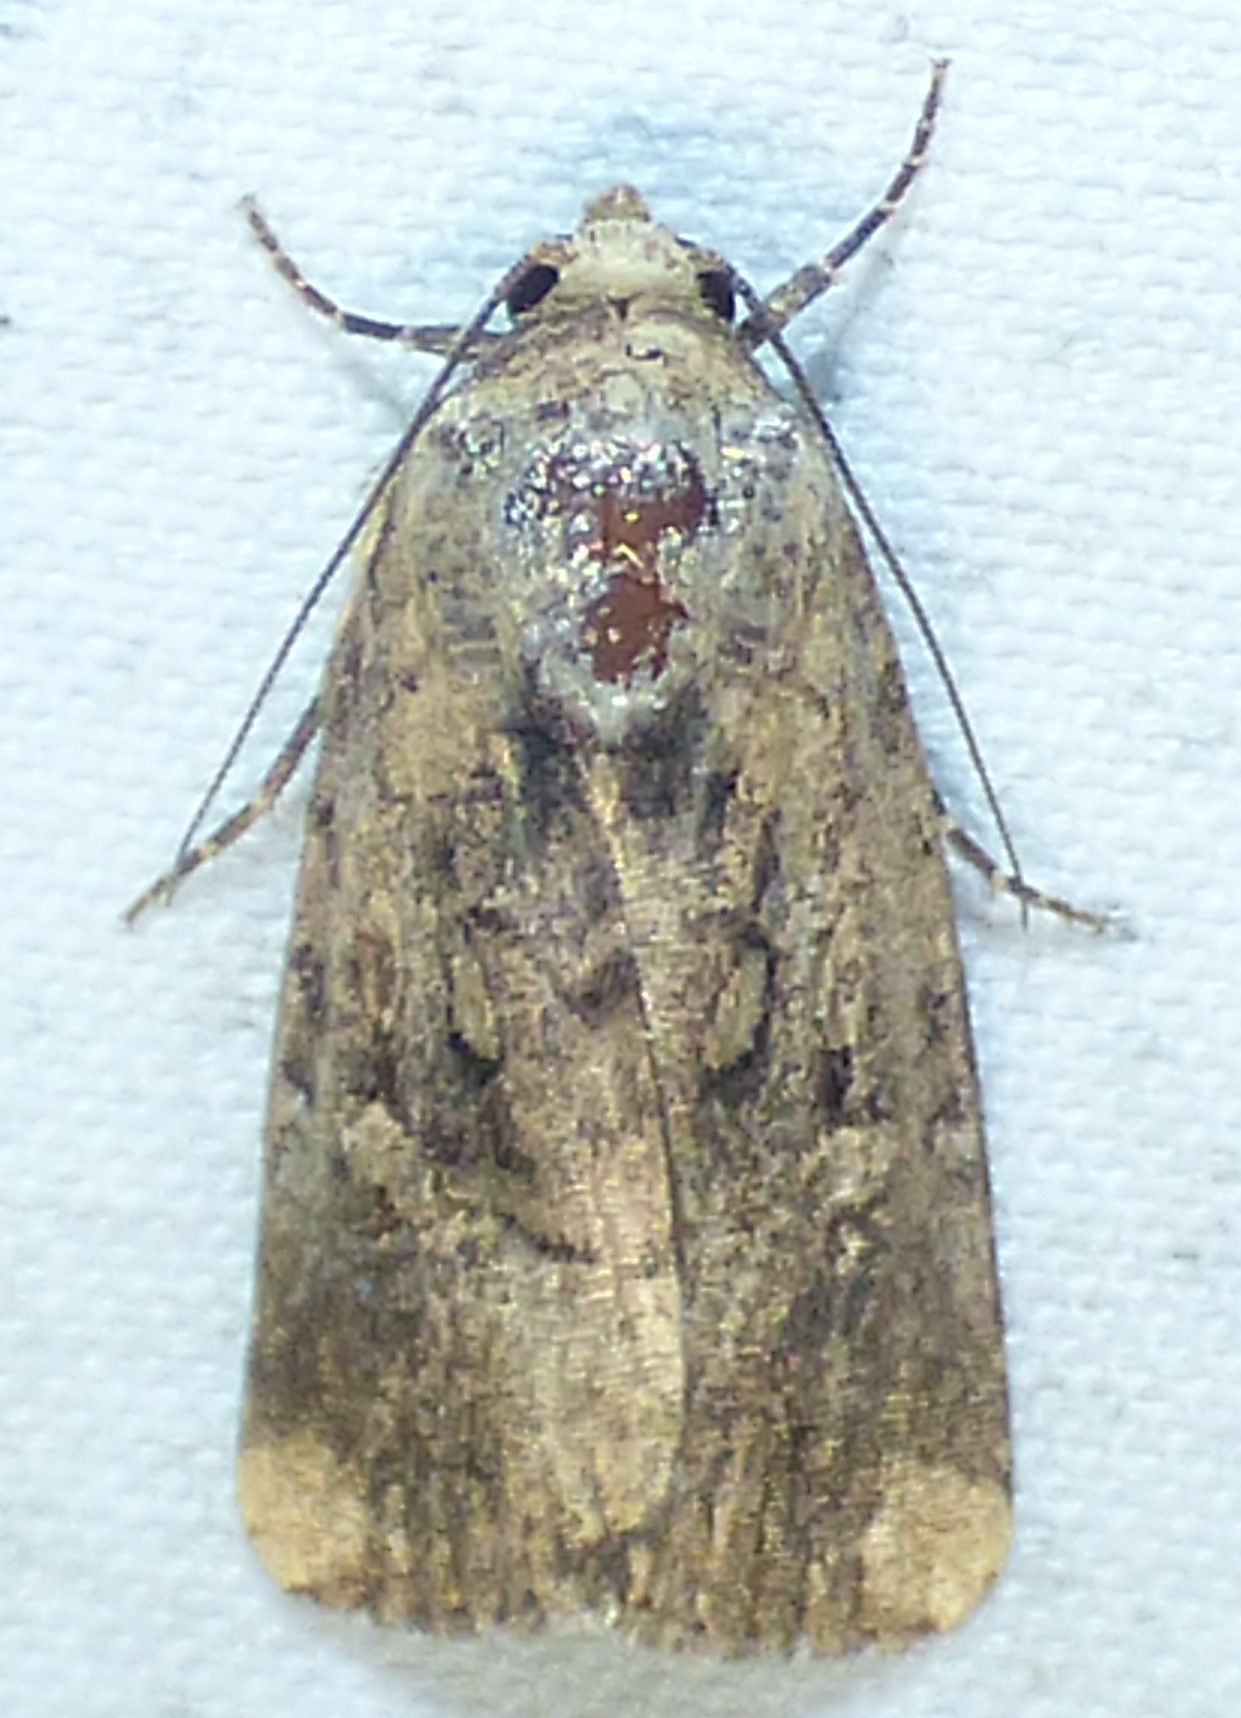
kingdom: Animalia
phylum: Arthropoda
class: Insecta
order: Lepidoptera
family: Noctuidae
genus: Elaphria
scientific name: Elaphria chalcedonia
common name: Chalcedony midget
